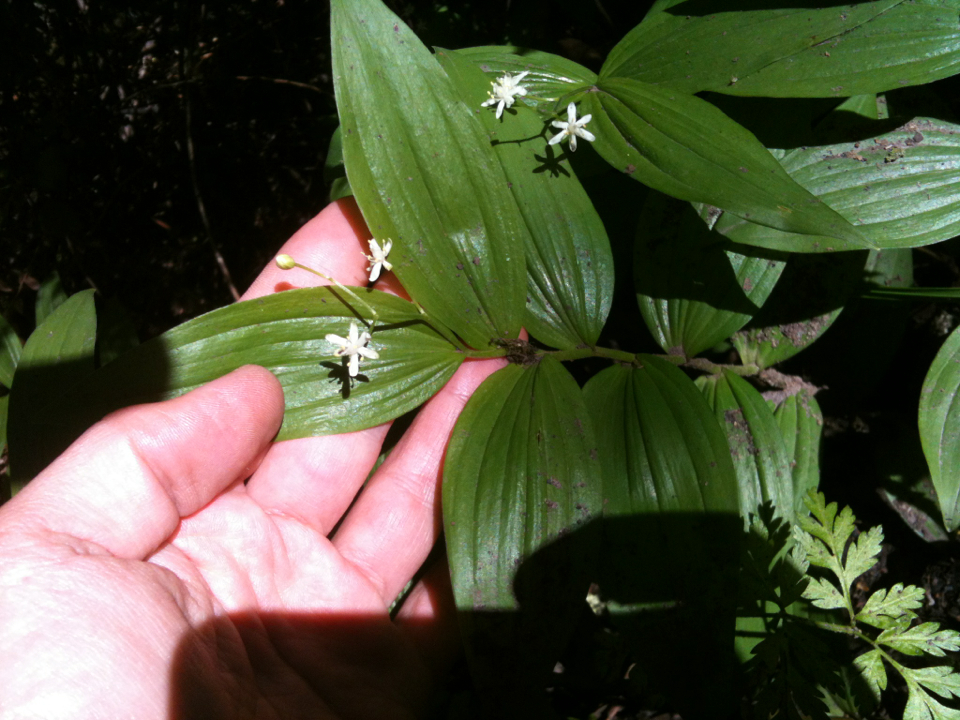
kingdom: Plantae
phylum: Tracheophyta
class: Liliopsida
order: Asparagales
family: Asparagaceae
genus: Maianthemum
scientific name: Maianthemum stellatum
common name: Little false solomon's seal
